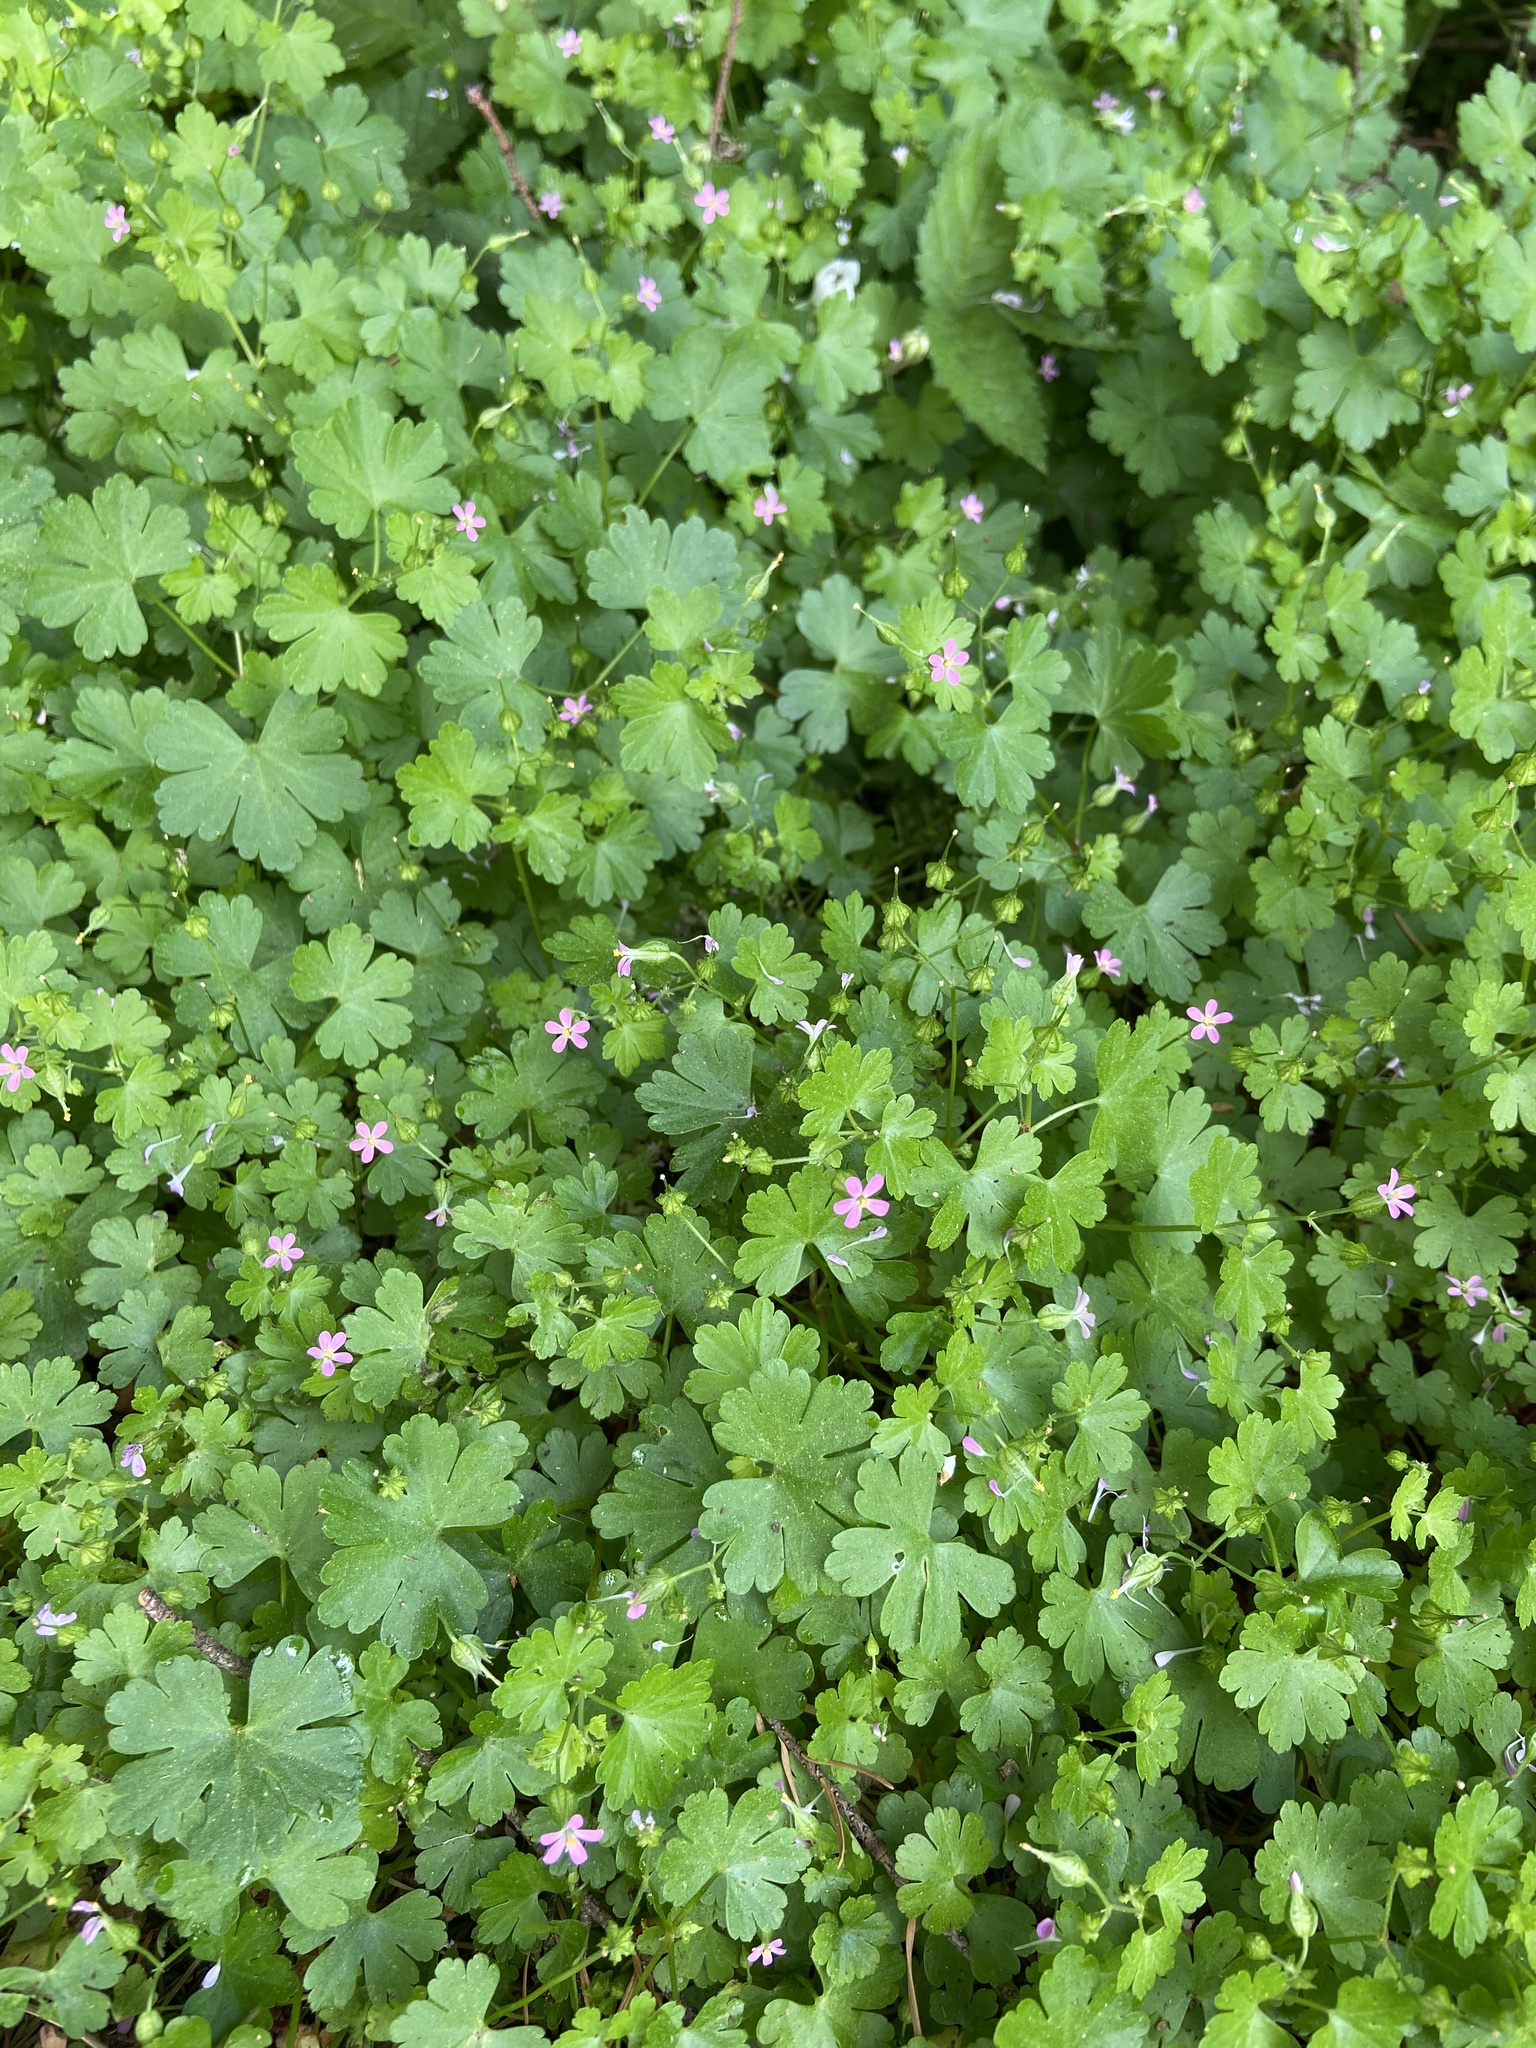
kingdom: Plantae
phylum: Tracheophyta
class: Magnoliopsida
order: Geraniales
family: Geraniaceae
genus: Geranium
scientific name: Geranium lucidum
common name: Shining crane's-bill
